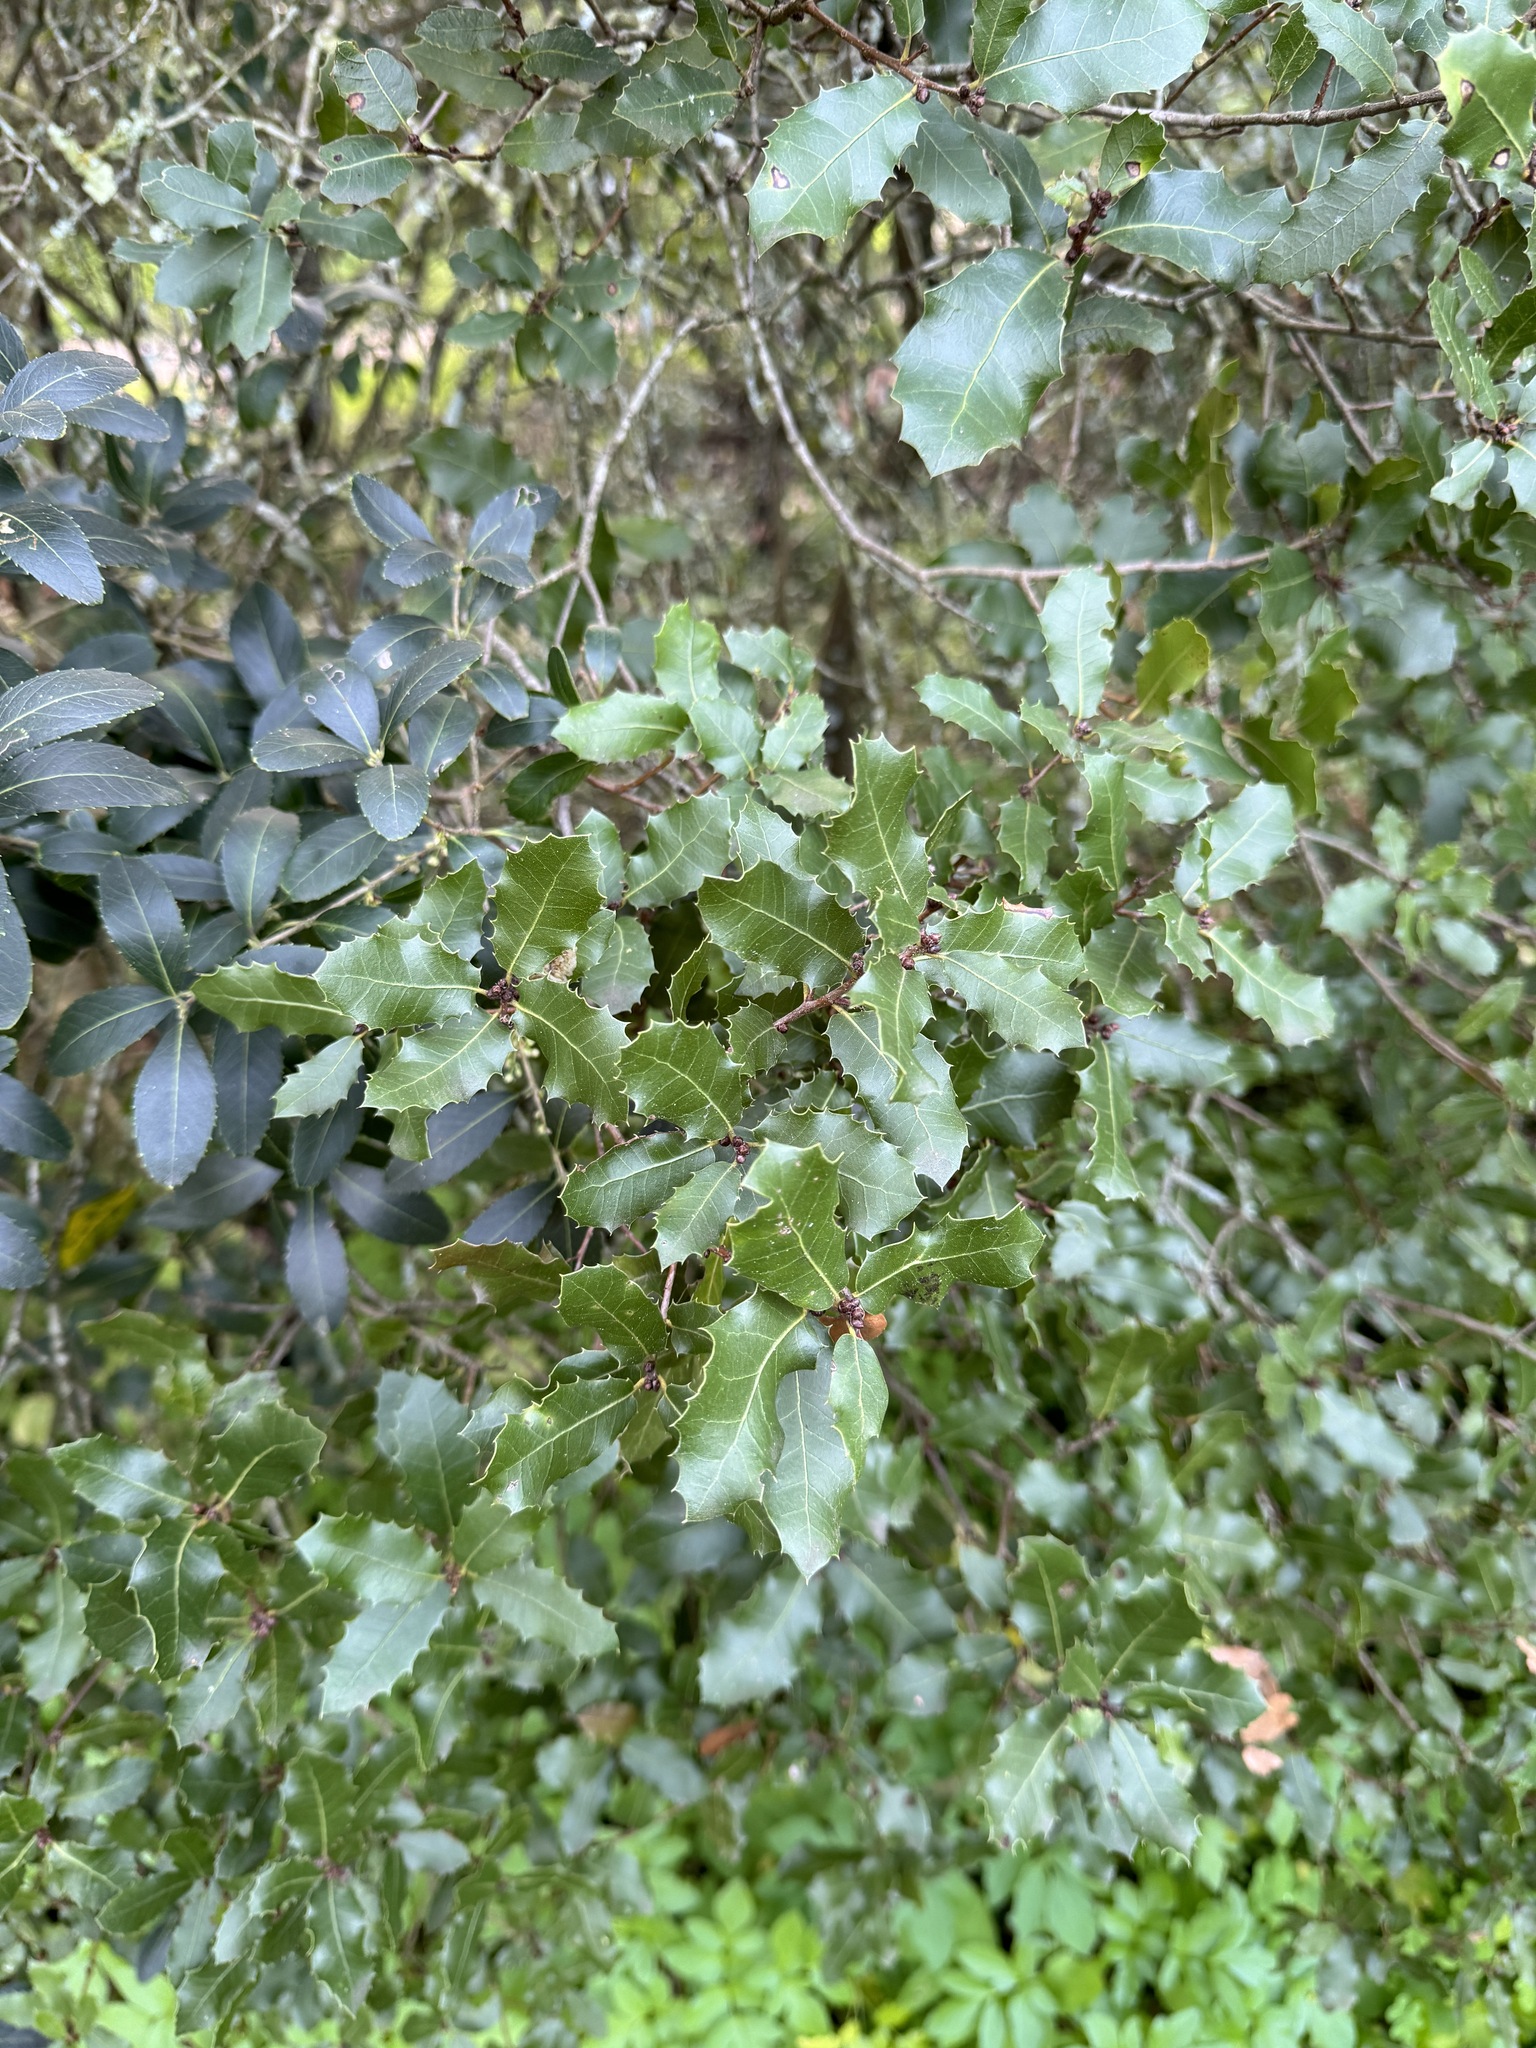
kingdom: Plantae
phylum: Tracheophyta
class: Magnoliopsida
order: Fagales
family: Fagaceae
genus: Quercus
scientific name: Quercus coccifera
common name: Kermes oak
